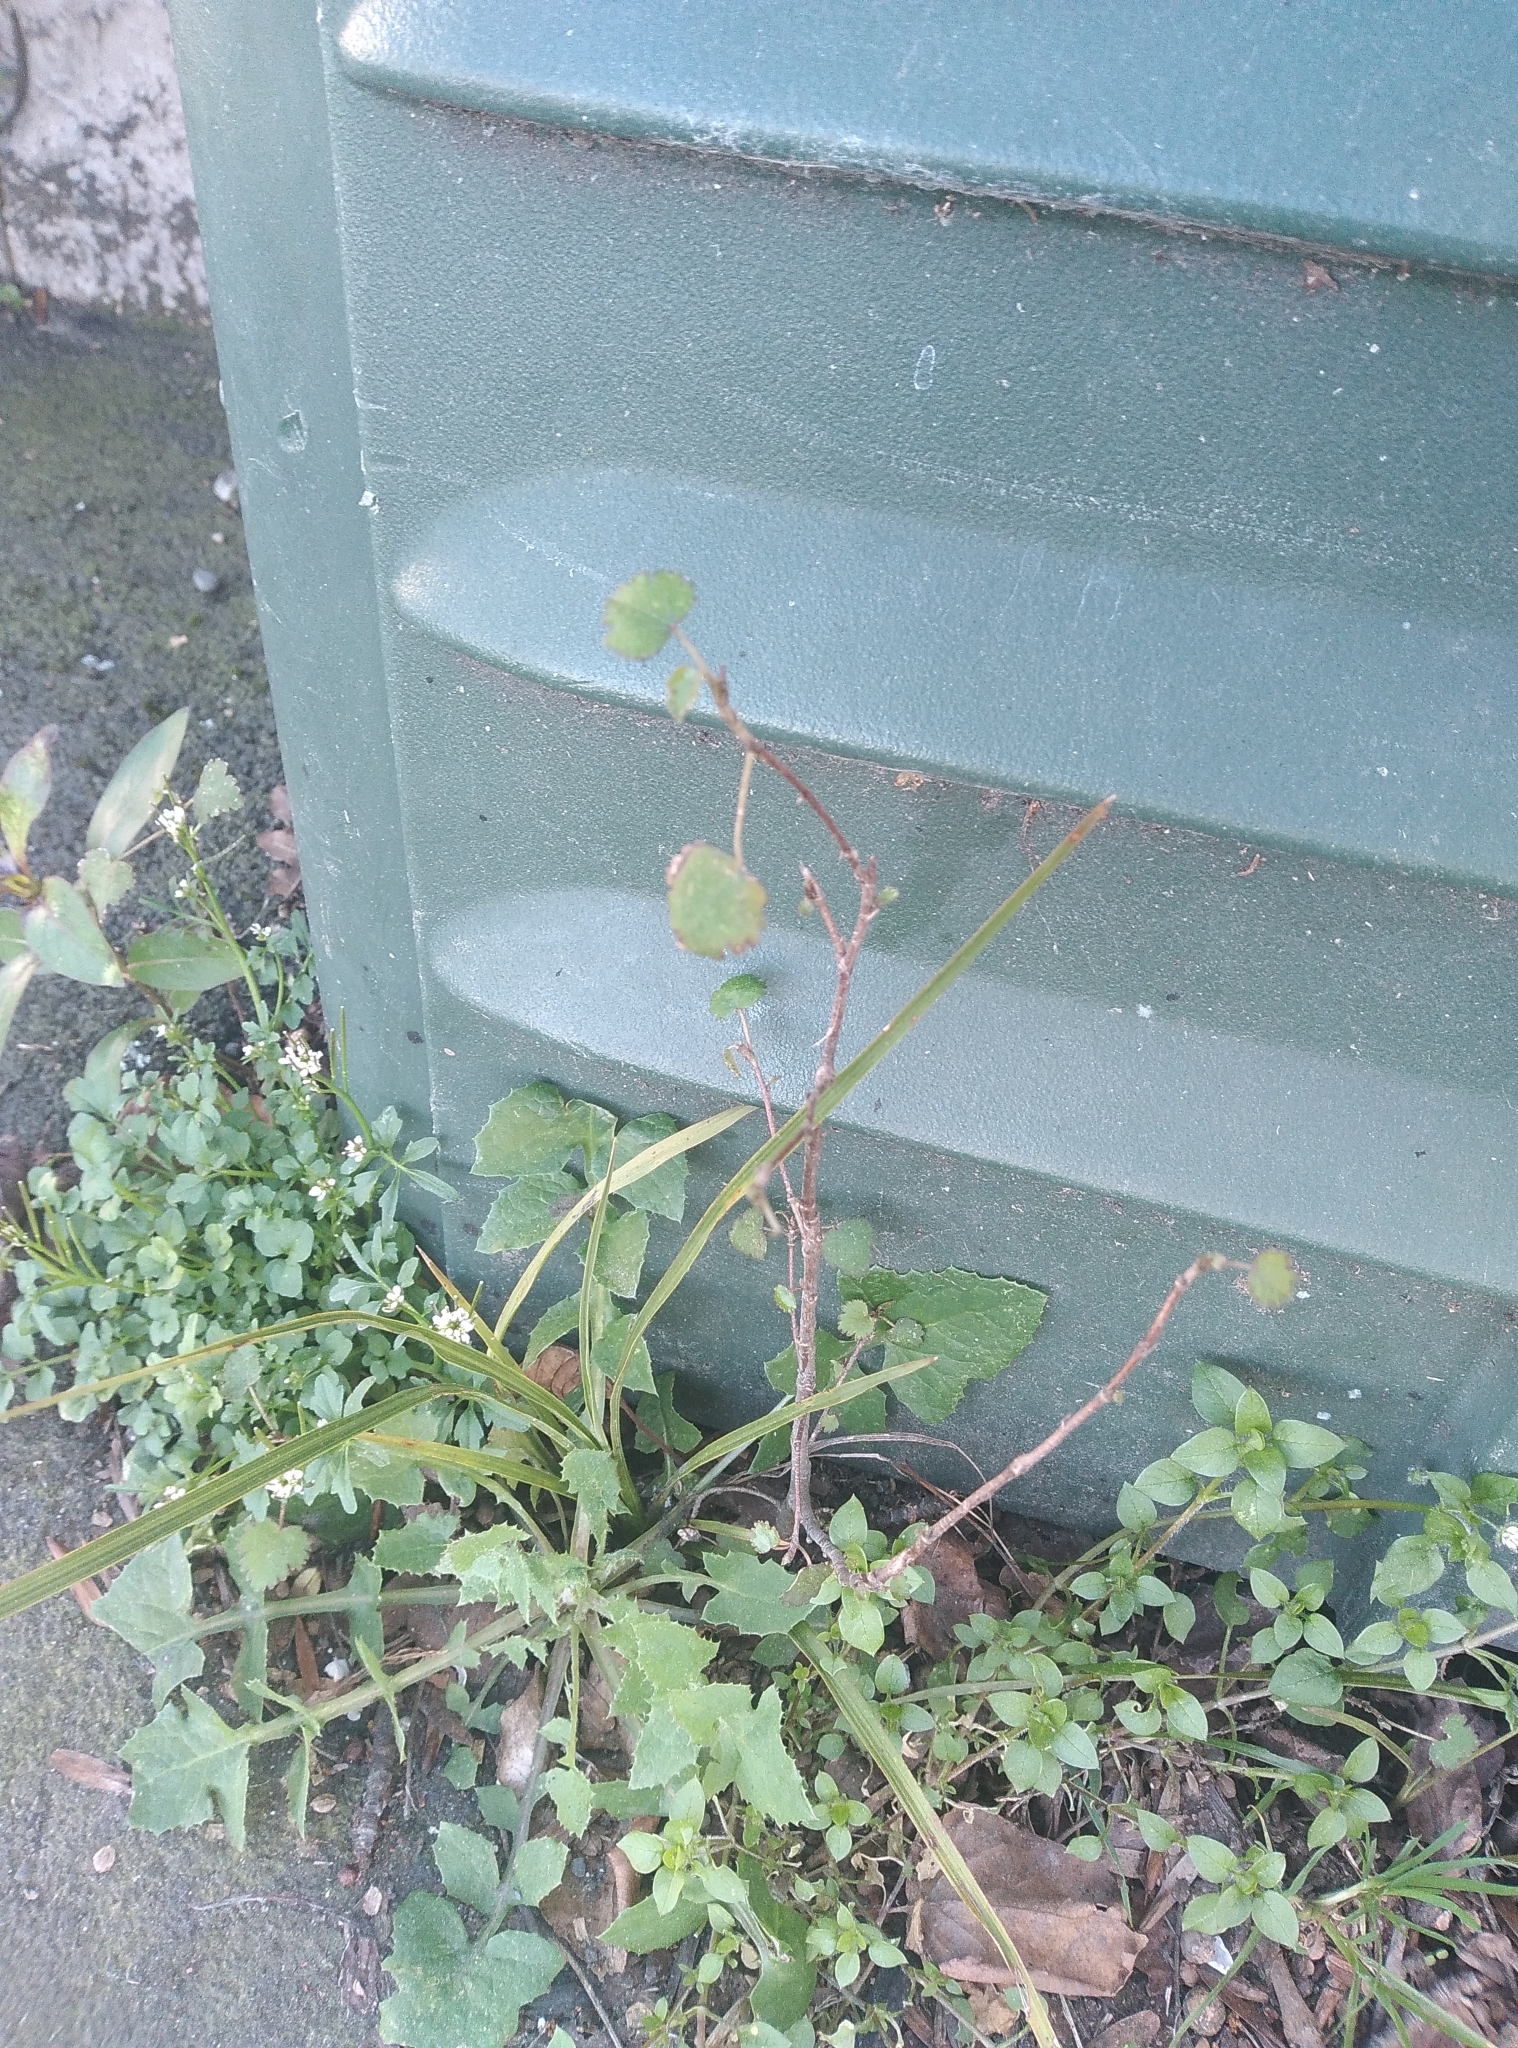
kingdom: Plantae
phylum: Tracheophyta
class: Magnoliopsida
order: Malvales
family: Malvaceae
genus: Plagianthus
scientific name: Plagianthus regius
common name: Manatu
